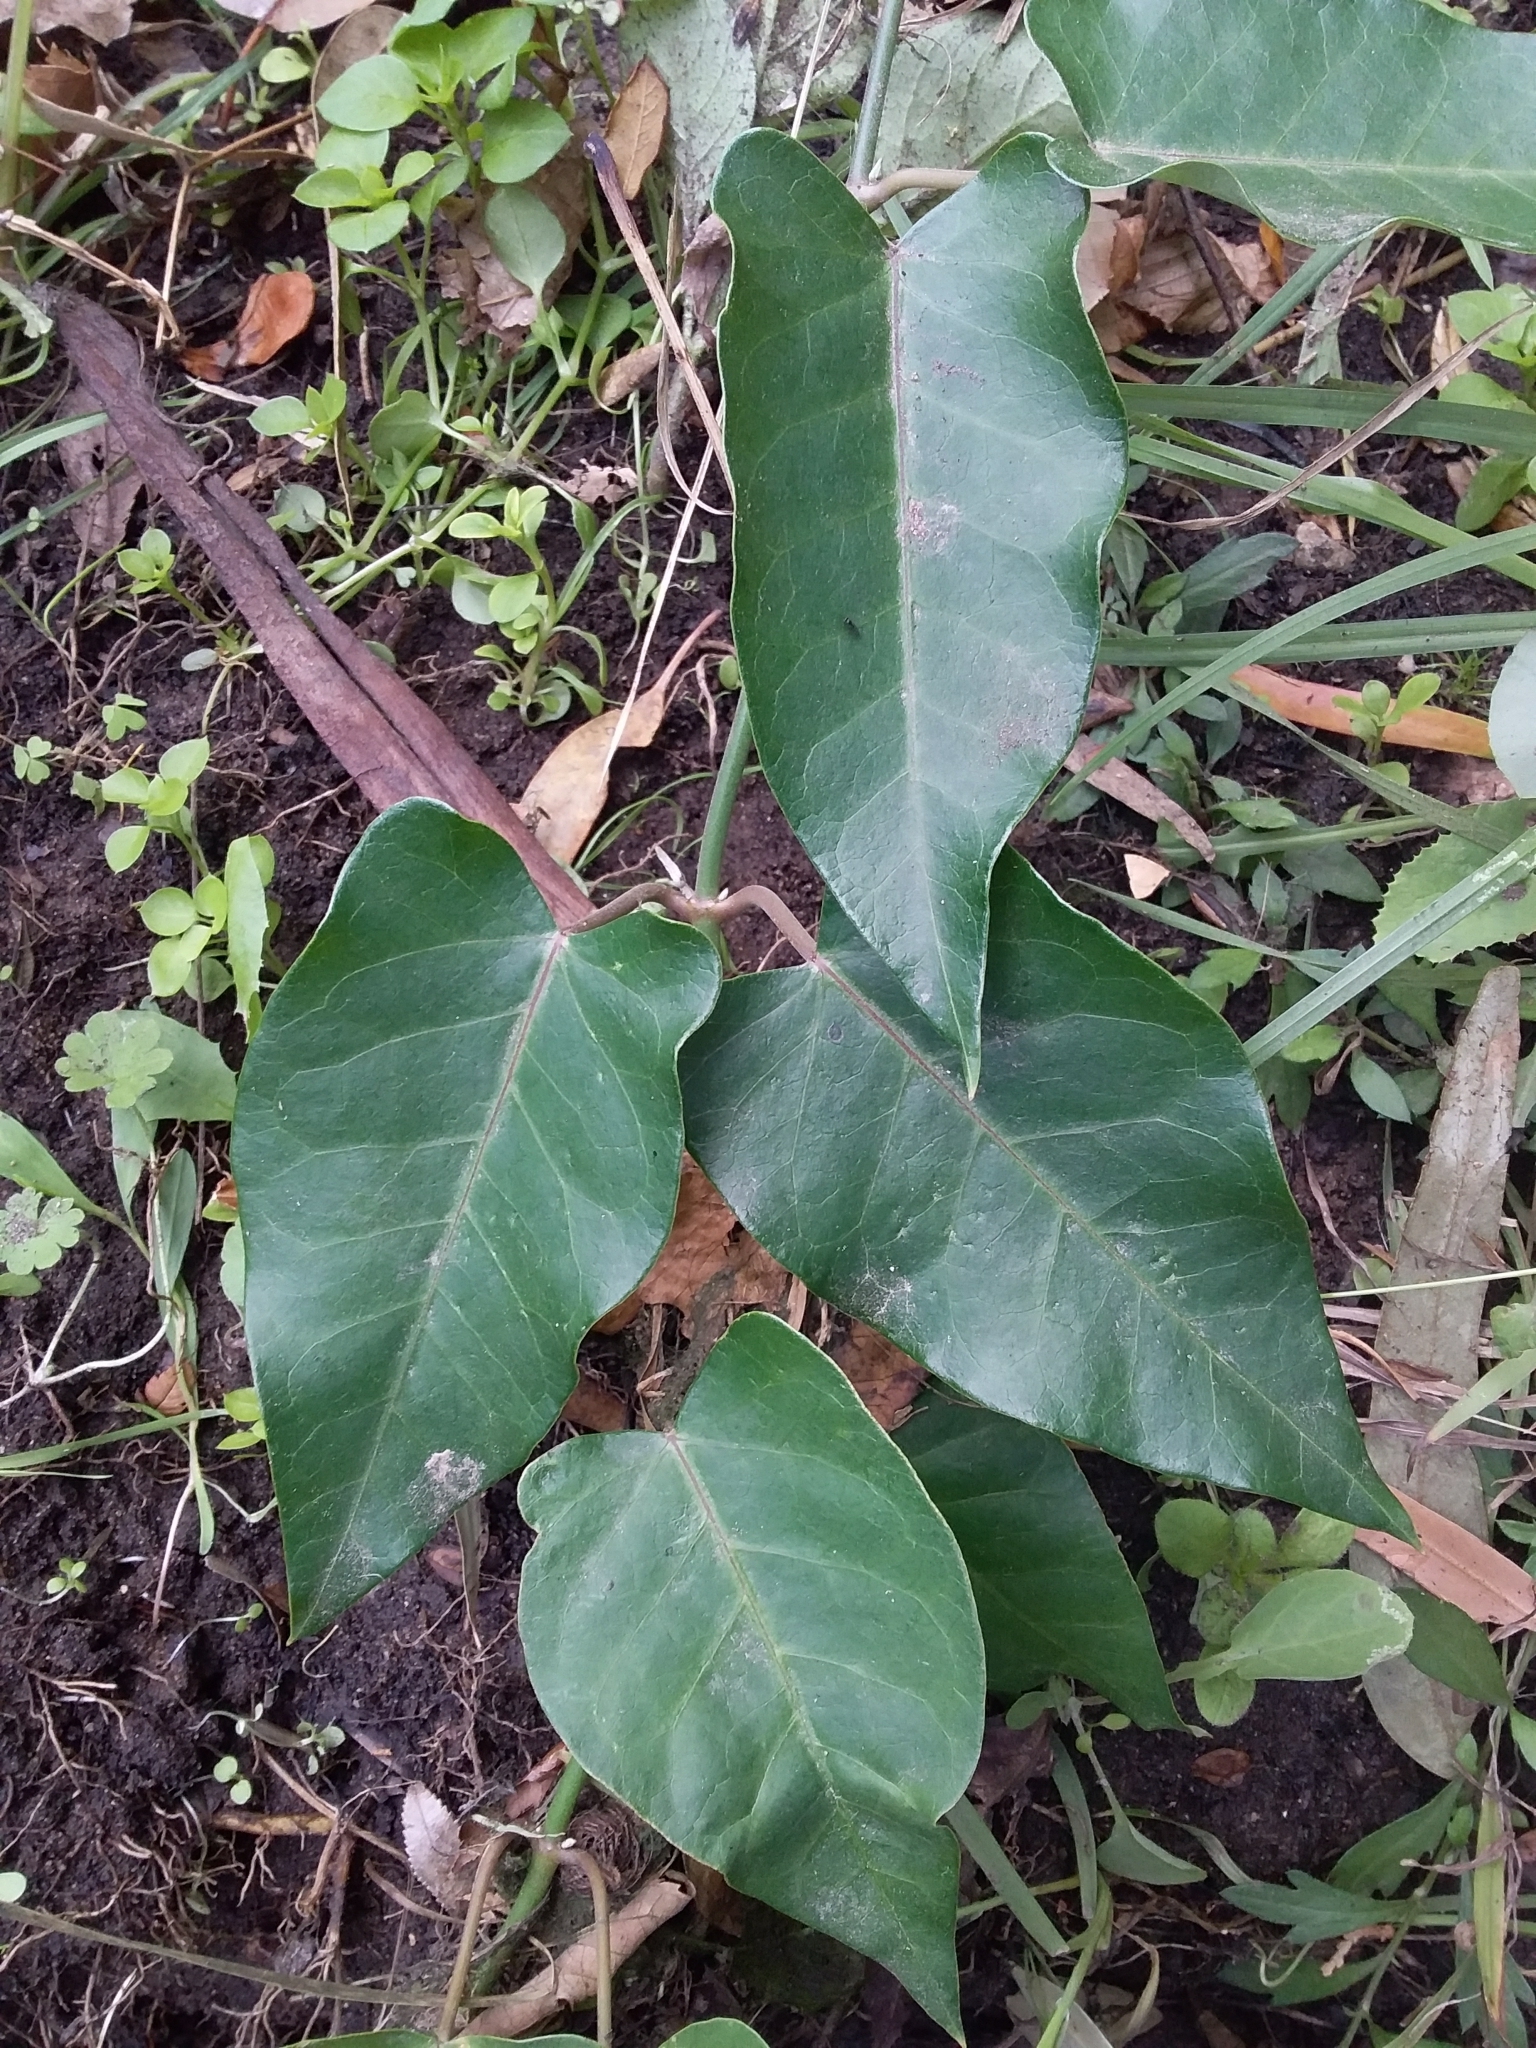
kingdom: Plantae
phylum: Tracheophyta
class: Magnoliopsida
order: Gentianales
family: Apocynaceae
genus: Araujia
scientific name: Araujia sericifera
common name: White bladderflower
